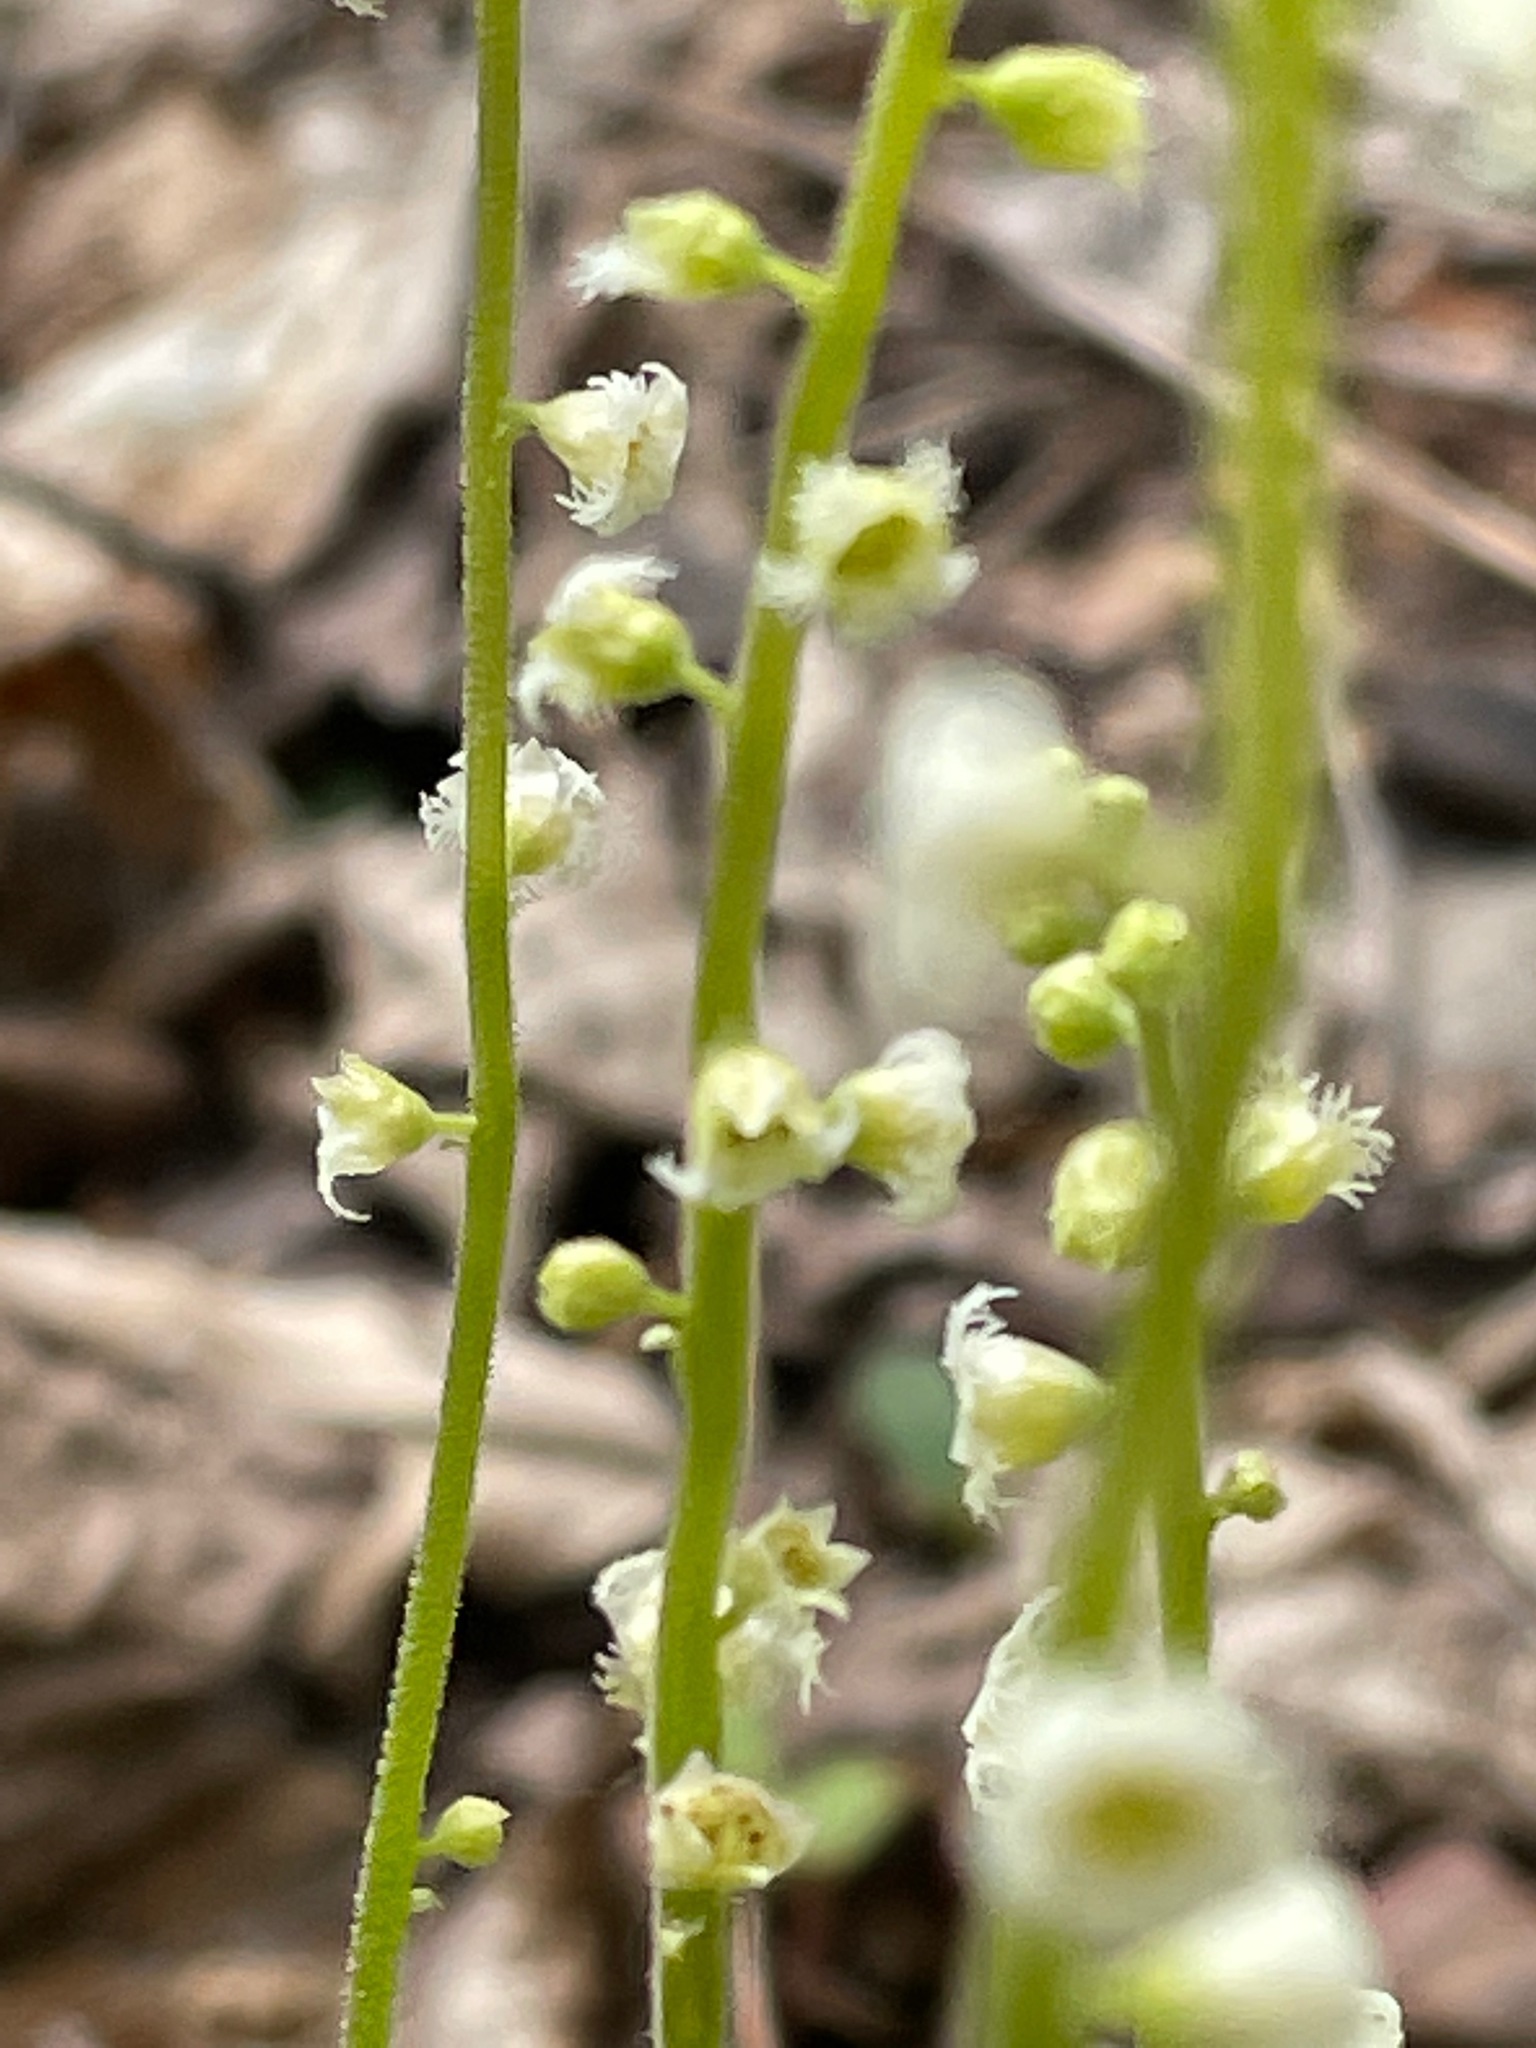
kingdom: Plantae
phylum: Tracheophyta
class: Magnoliopsida
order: Saxifragales
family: Saxifragaceae
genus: Mitella
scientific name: Mitella diphylla
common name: Coolwort
